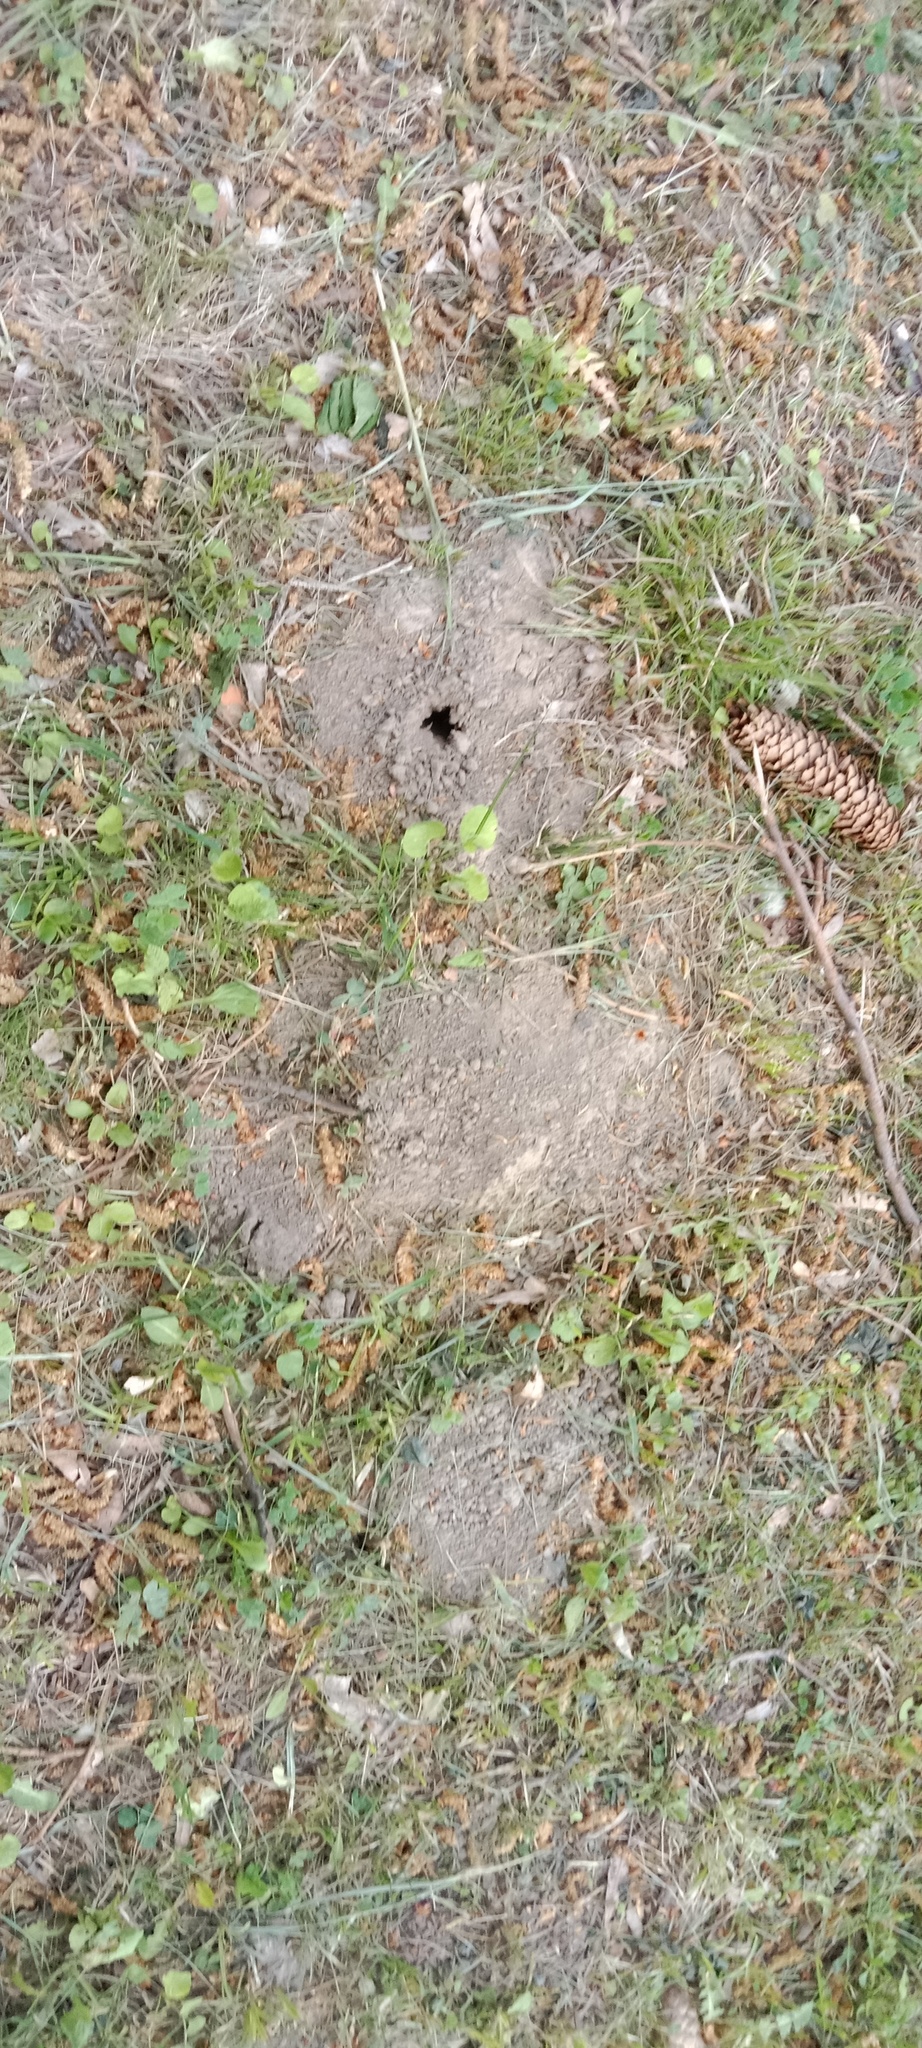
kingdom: Animalia
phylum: Chordata
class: Mammalia
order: Soricomorpha
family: Talpidae
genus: Talpa
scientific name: Talpa europaea
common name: European mole
